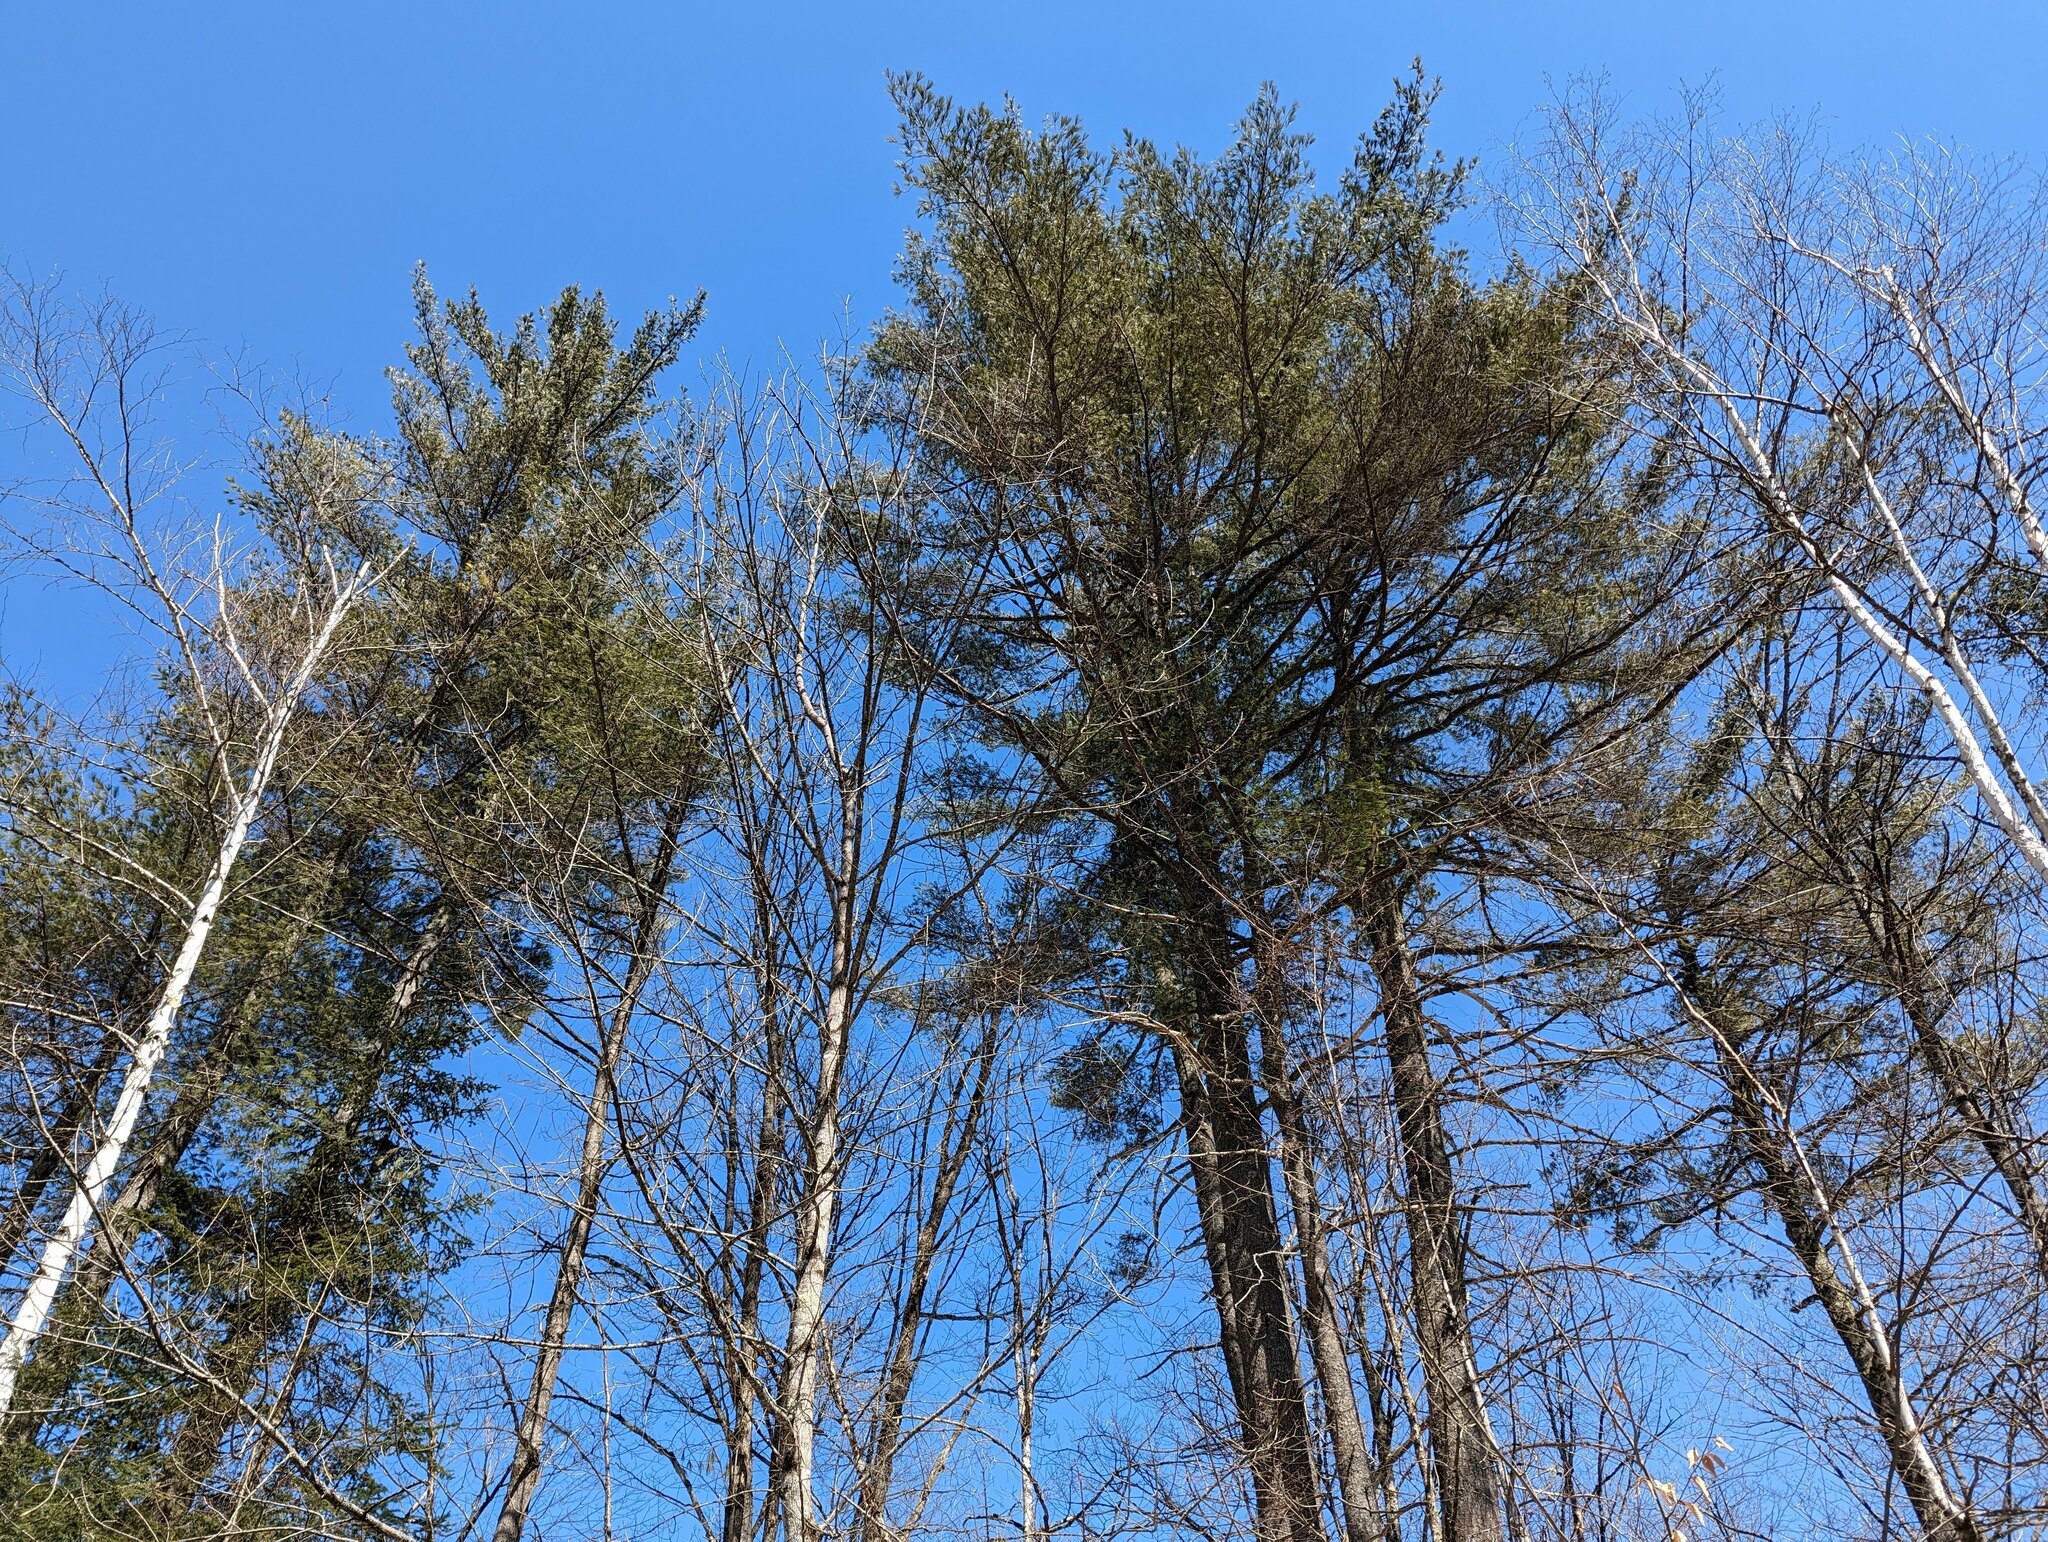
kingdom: Plantae
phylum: Tracheophyta
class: Pinopsida
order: Pinales
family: Pinaceae
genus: Pinus
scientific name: Pinus strobus
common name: Weymouth pine
